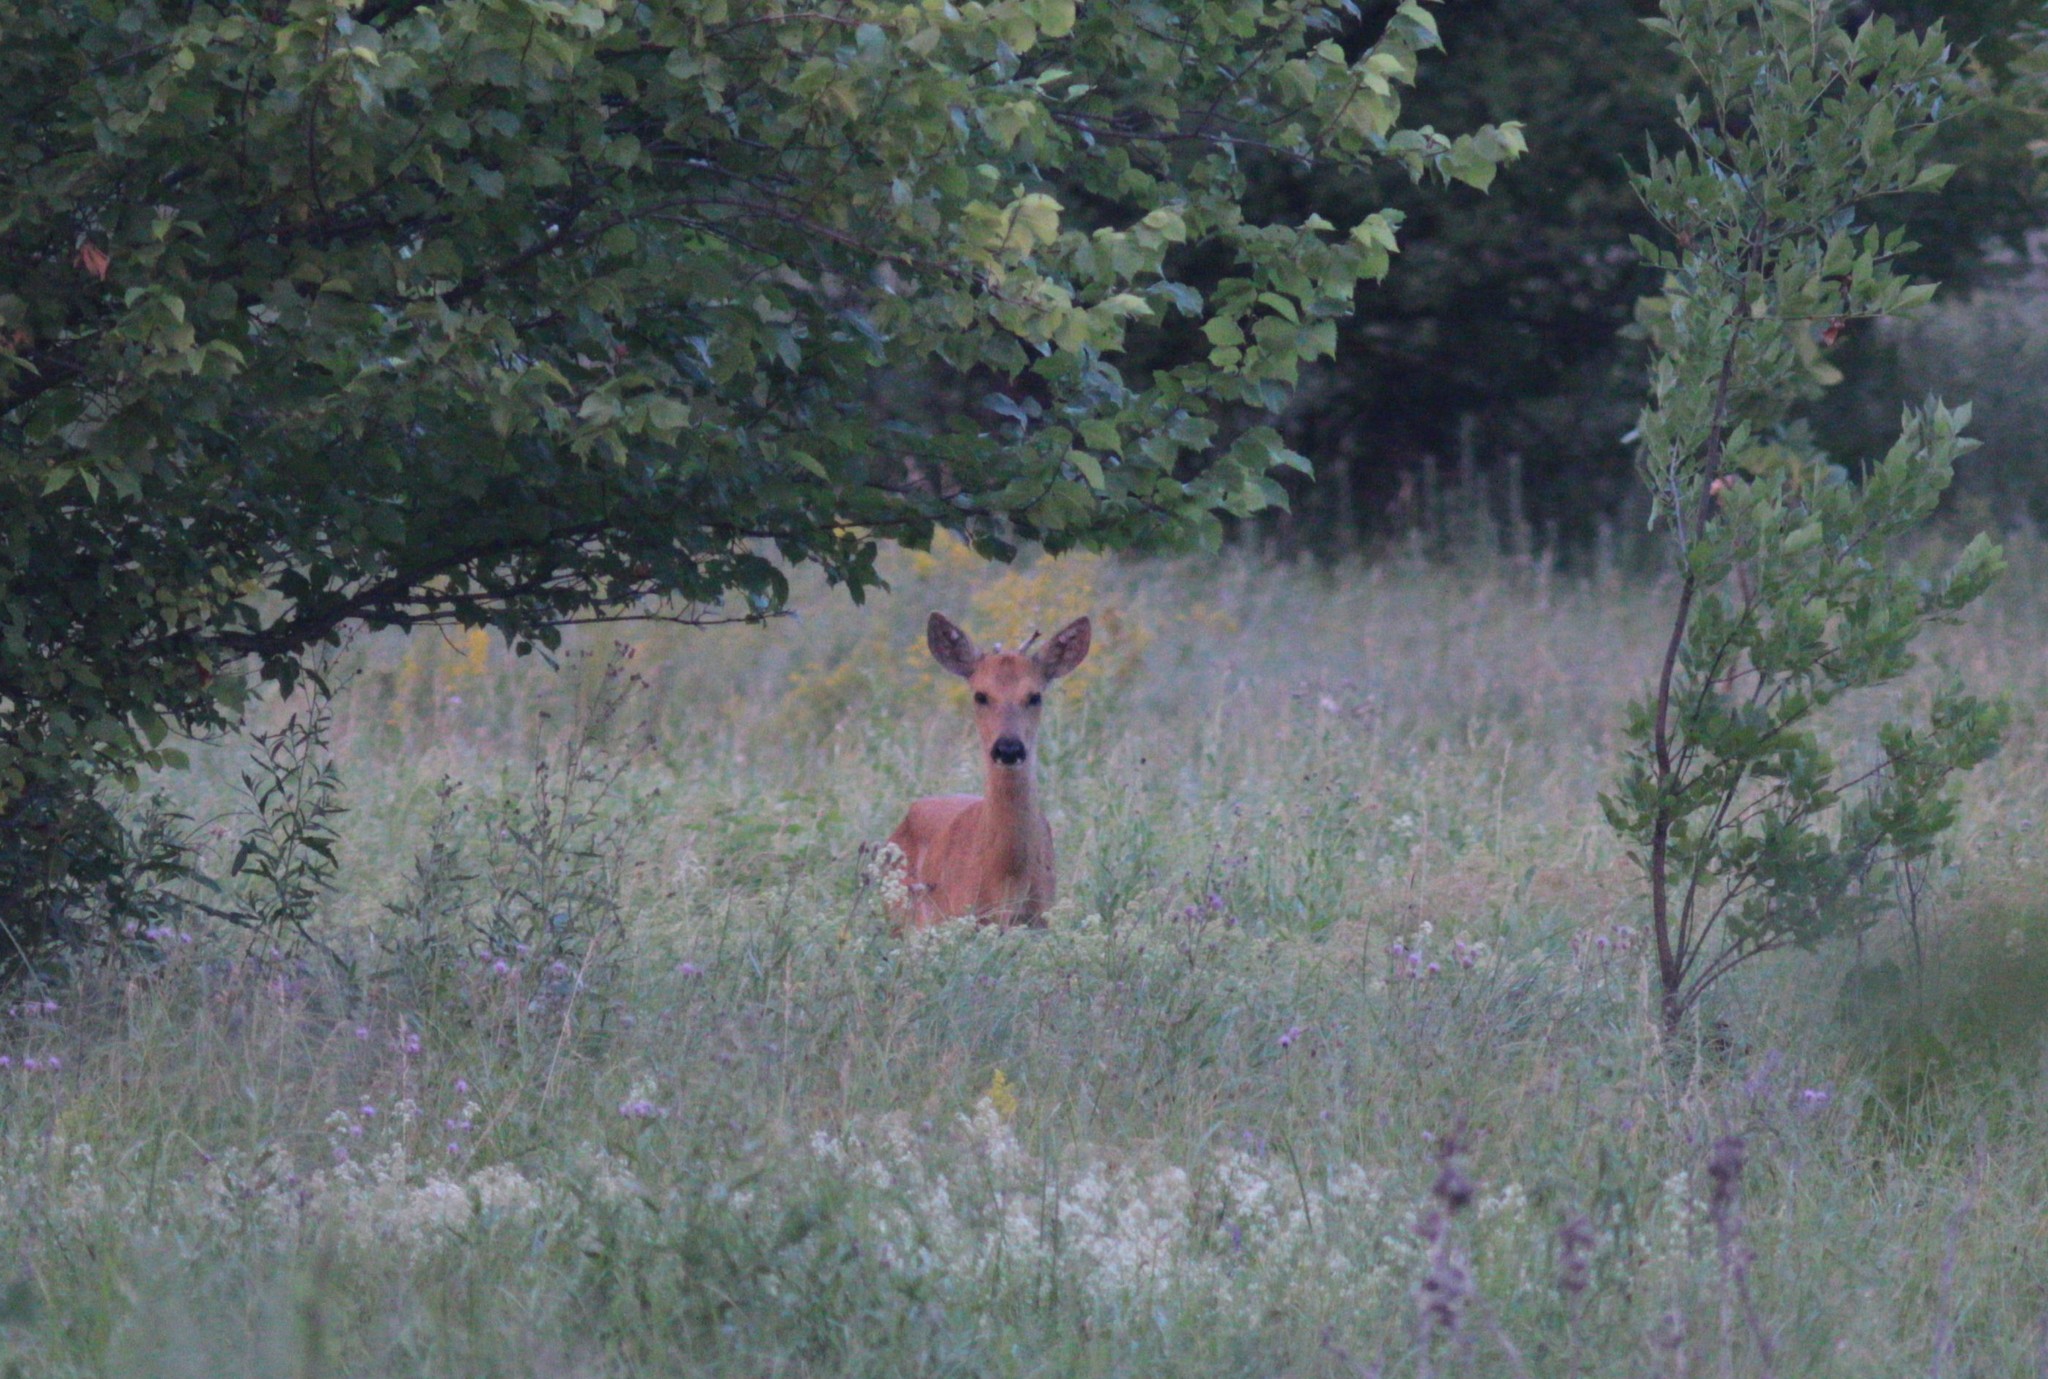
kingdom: Animalia
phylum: Chordata
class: Mammalia
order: Artiodactyla
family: Cervidae
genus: Capreolus
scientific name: Capreolus pygargus
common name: Siberian roe
